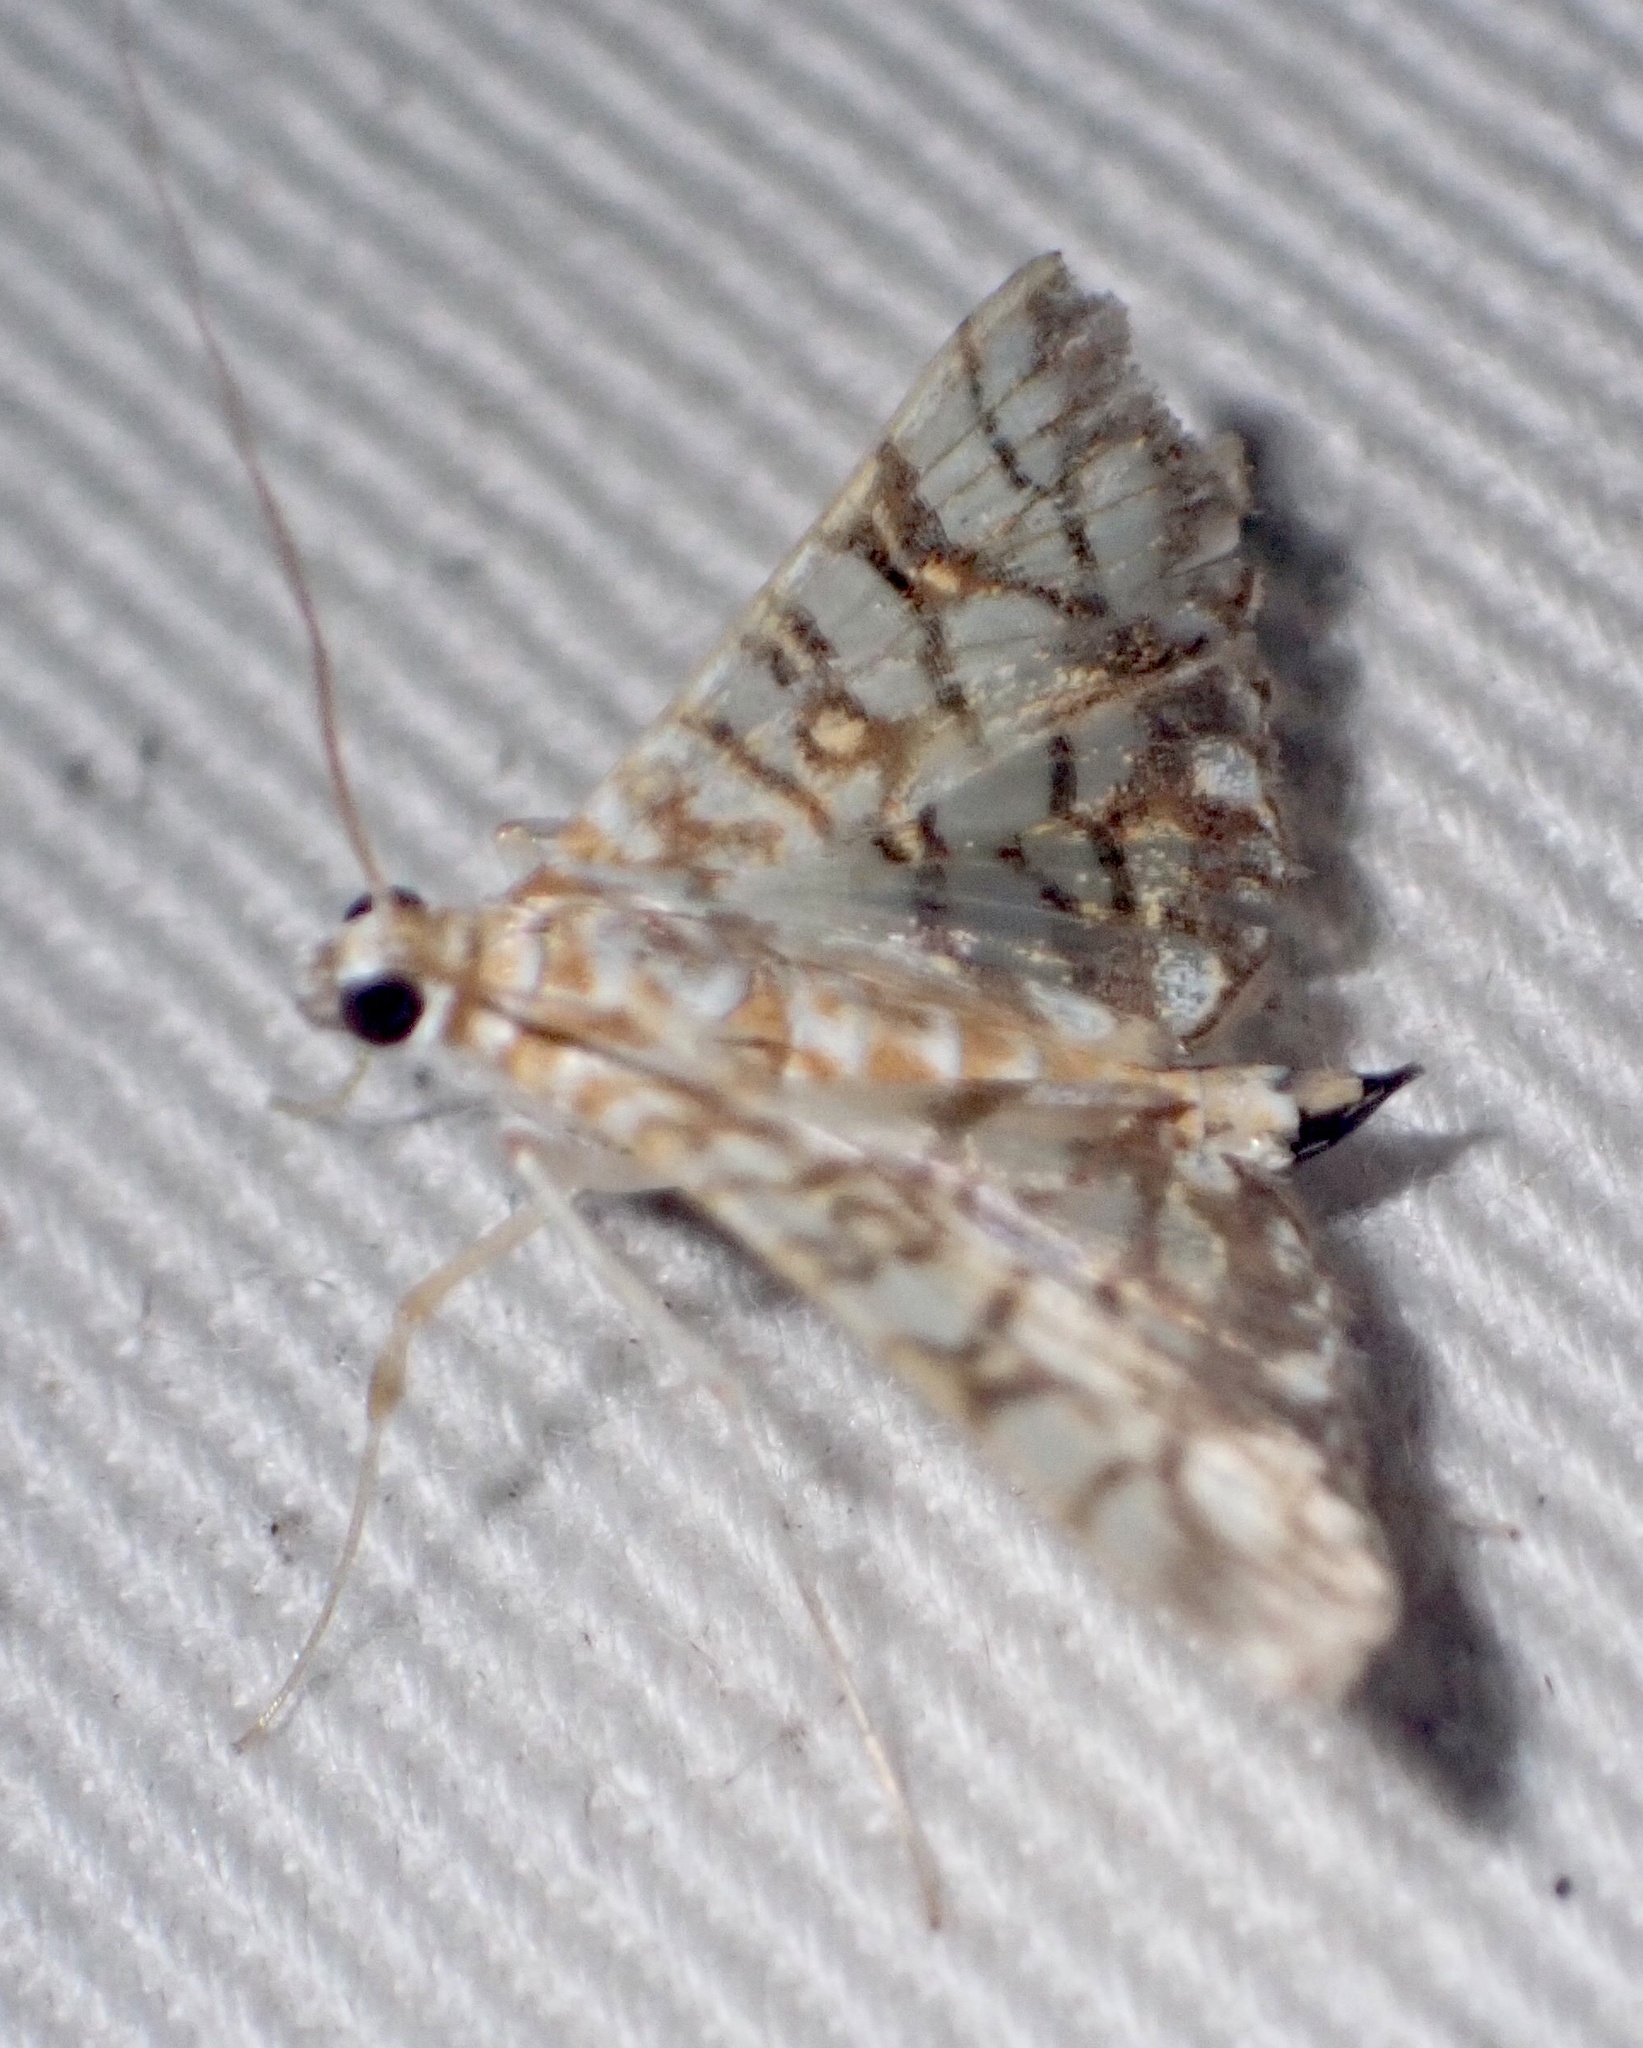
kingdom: Animalia
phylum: Arthropoda
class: Insecta
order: Lepidoptera
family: Crambidae
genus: Synclera
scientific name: Synclera traducalis
